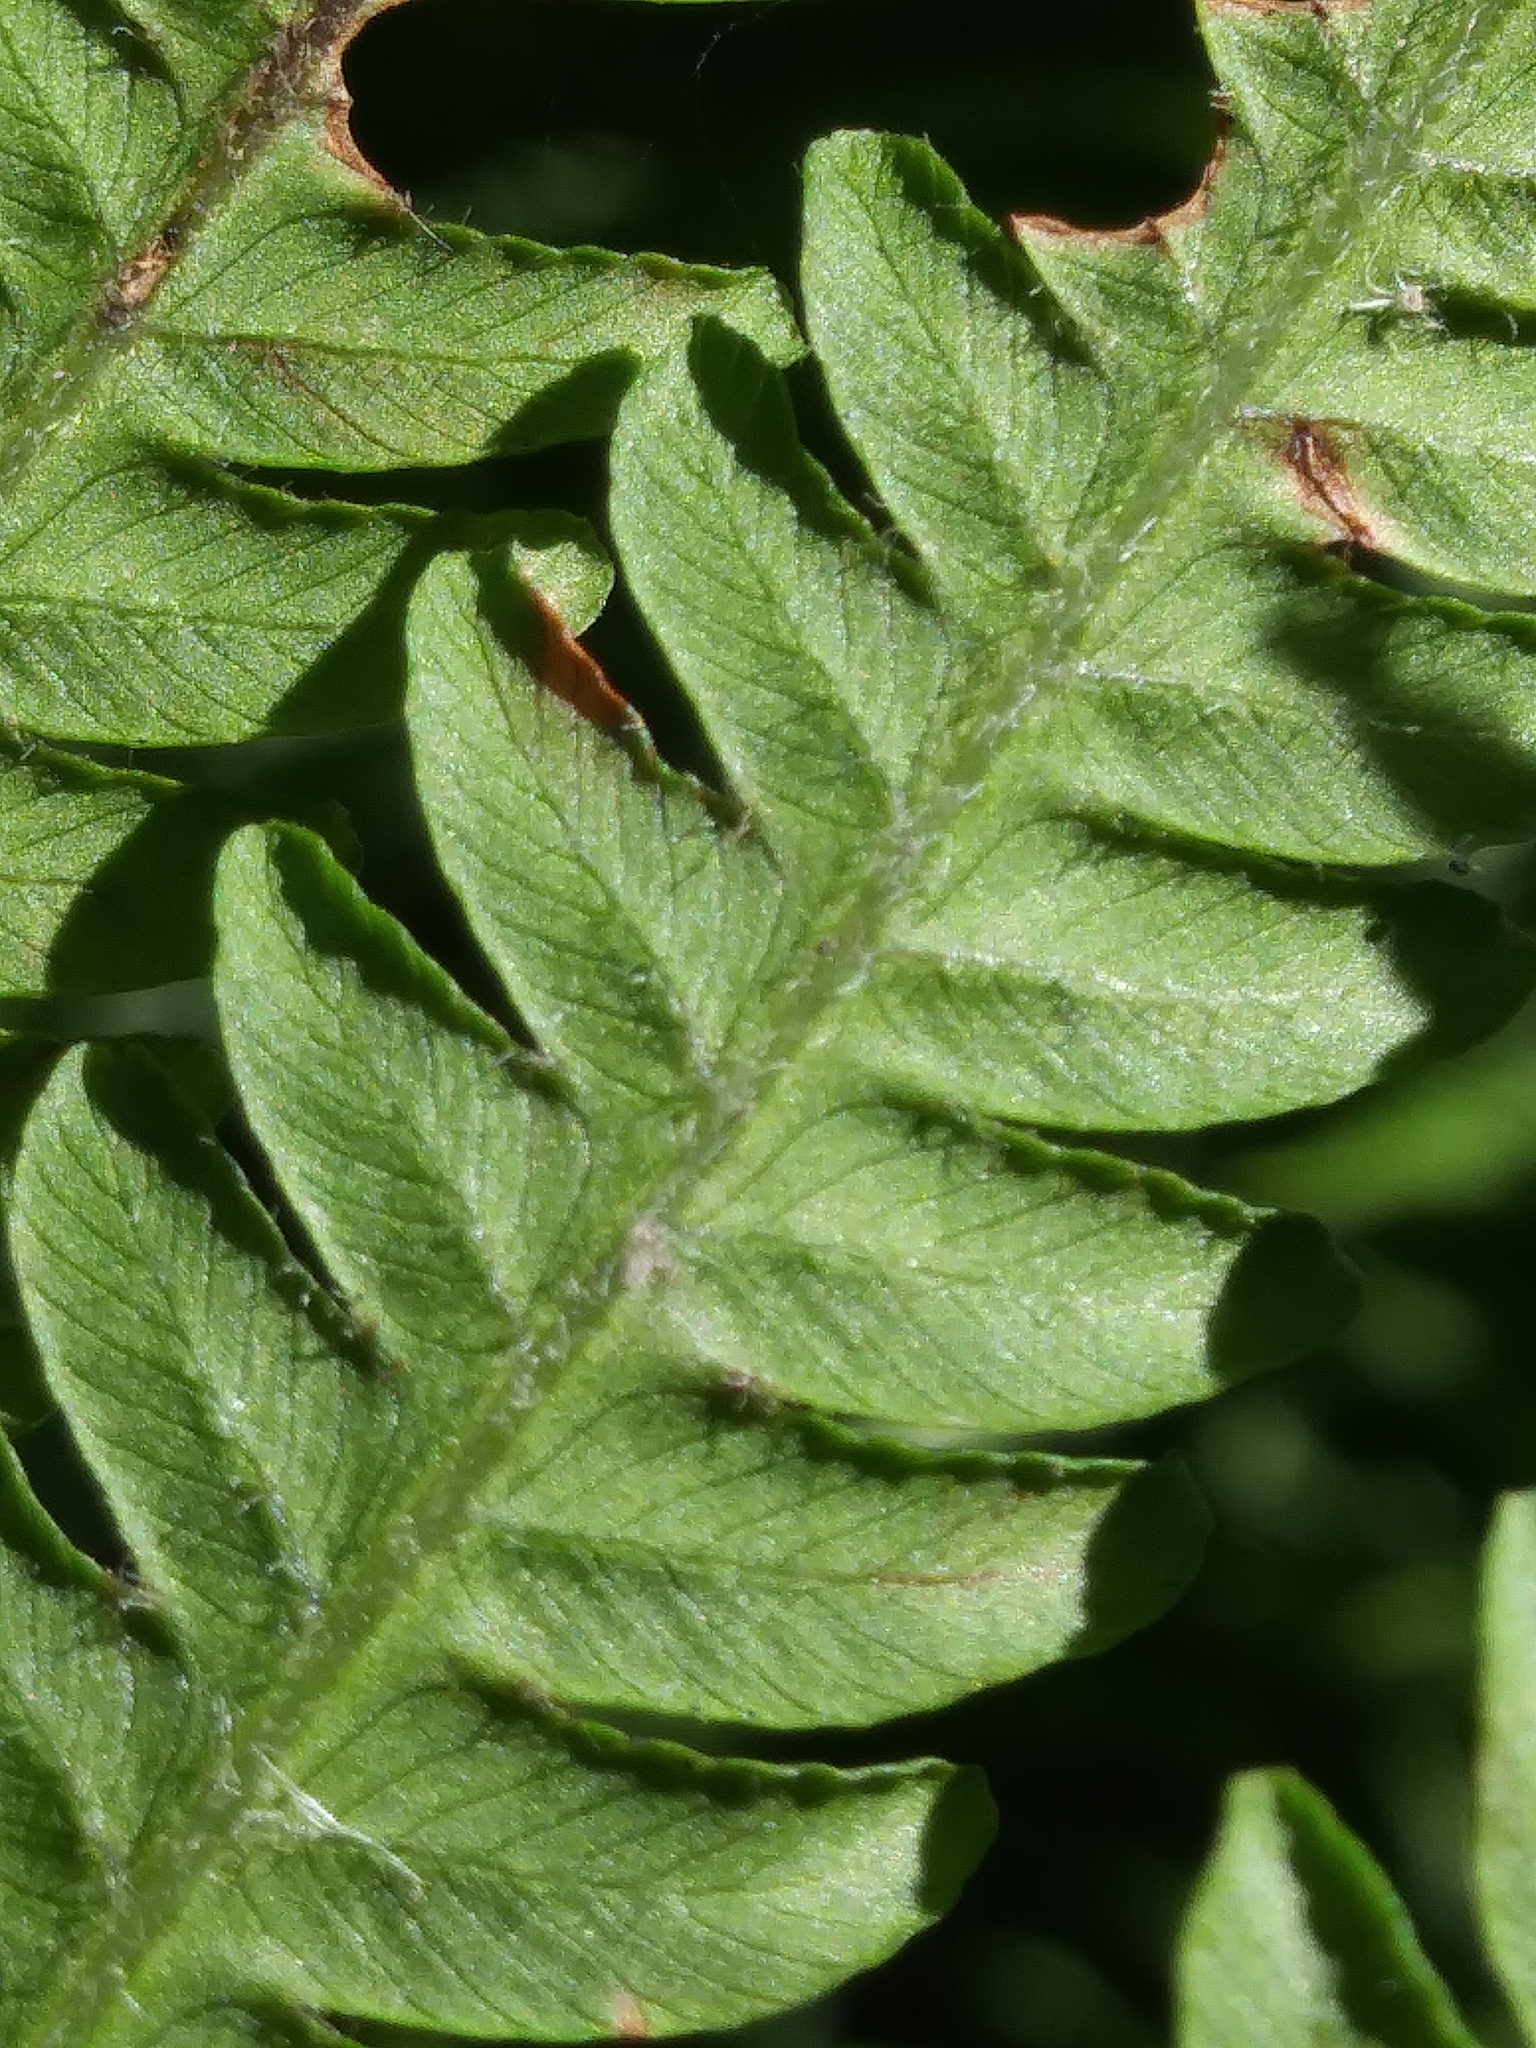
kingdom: Plantae
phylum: Tracheophyta
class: Polypodiopsida
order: Polypodiales
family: Onocleaceae
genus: Matteuccia
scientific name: Matteuccia struthiopteris
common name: Ostrich fern
